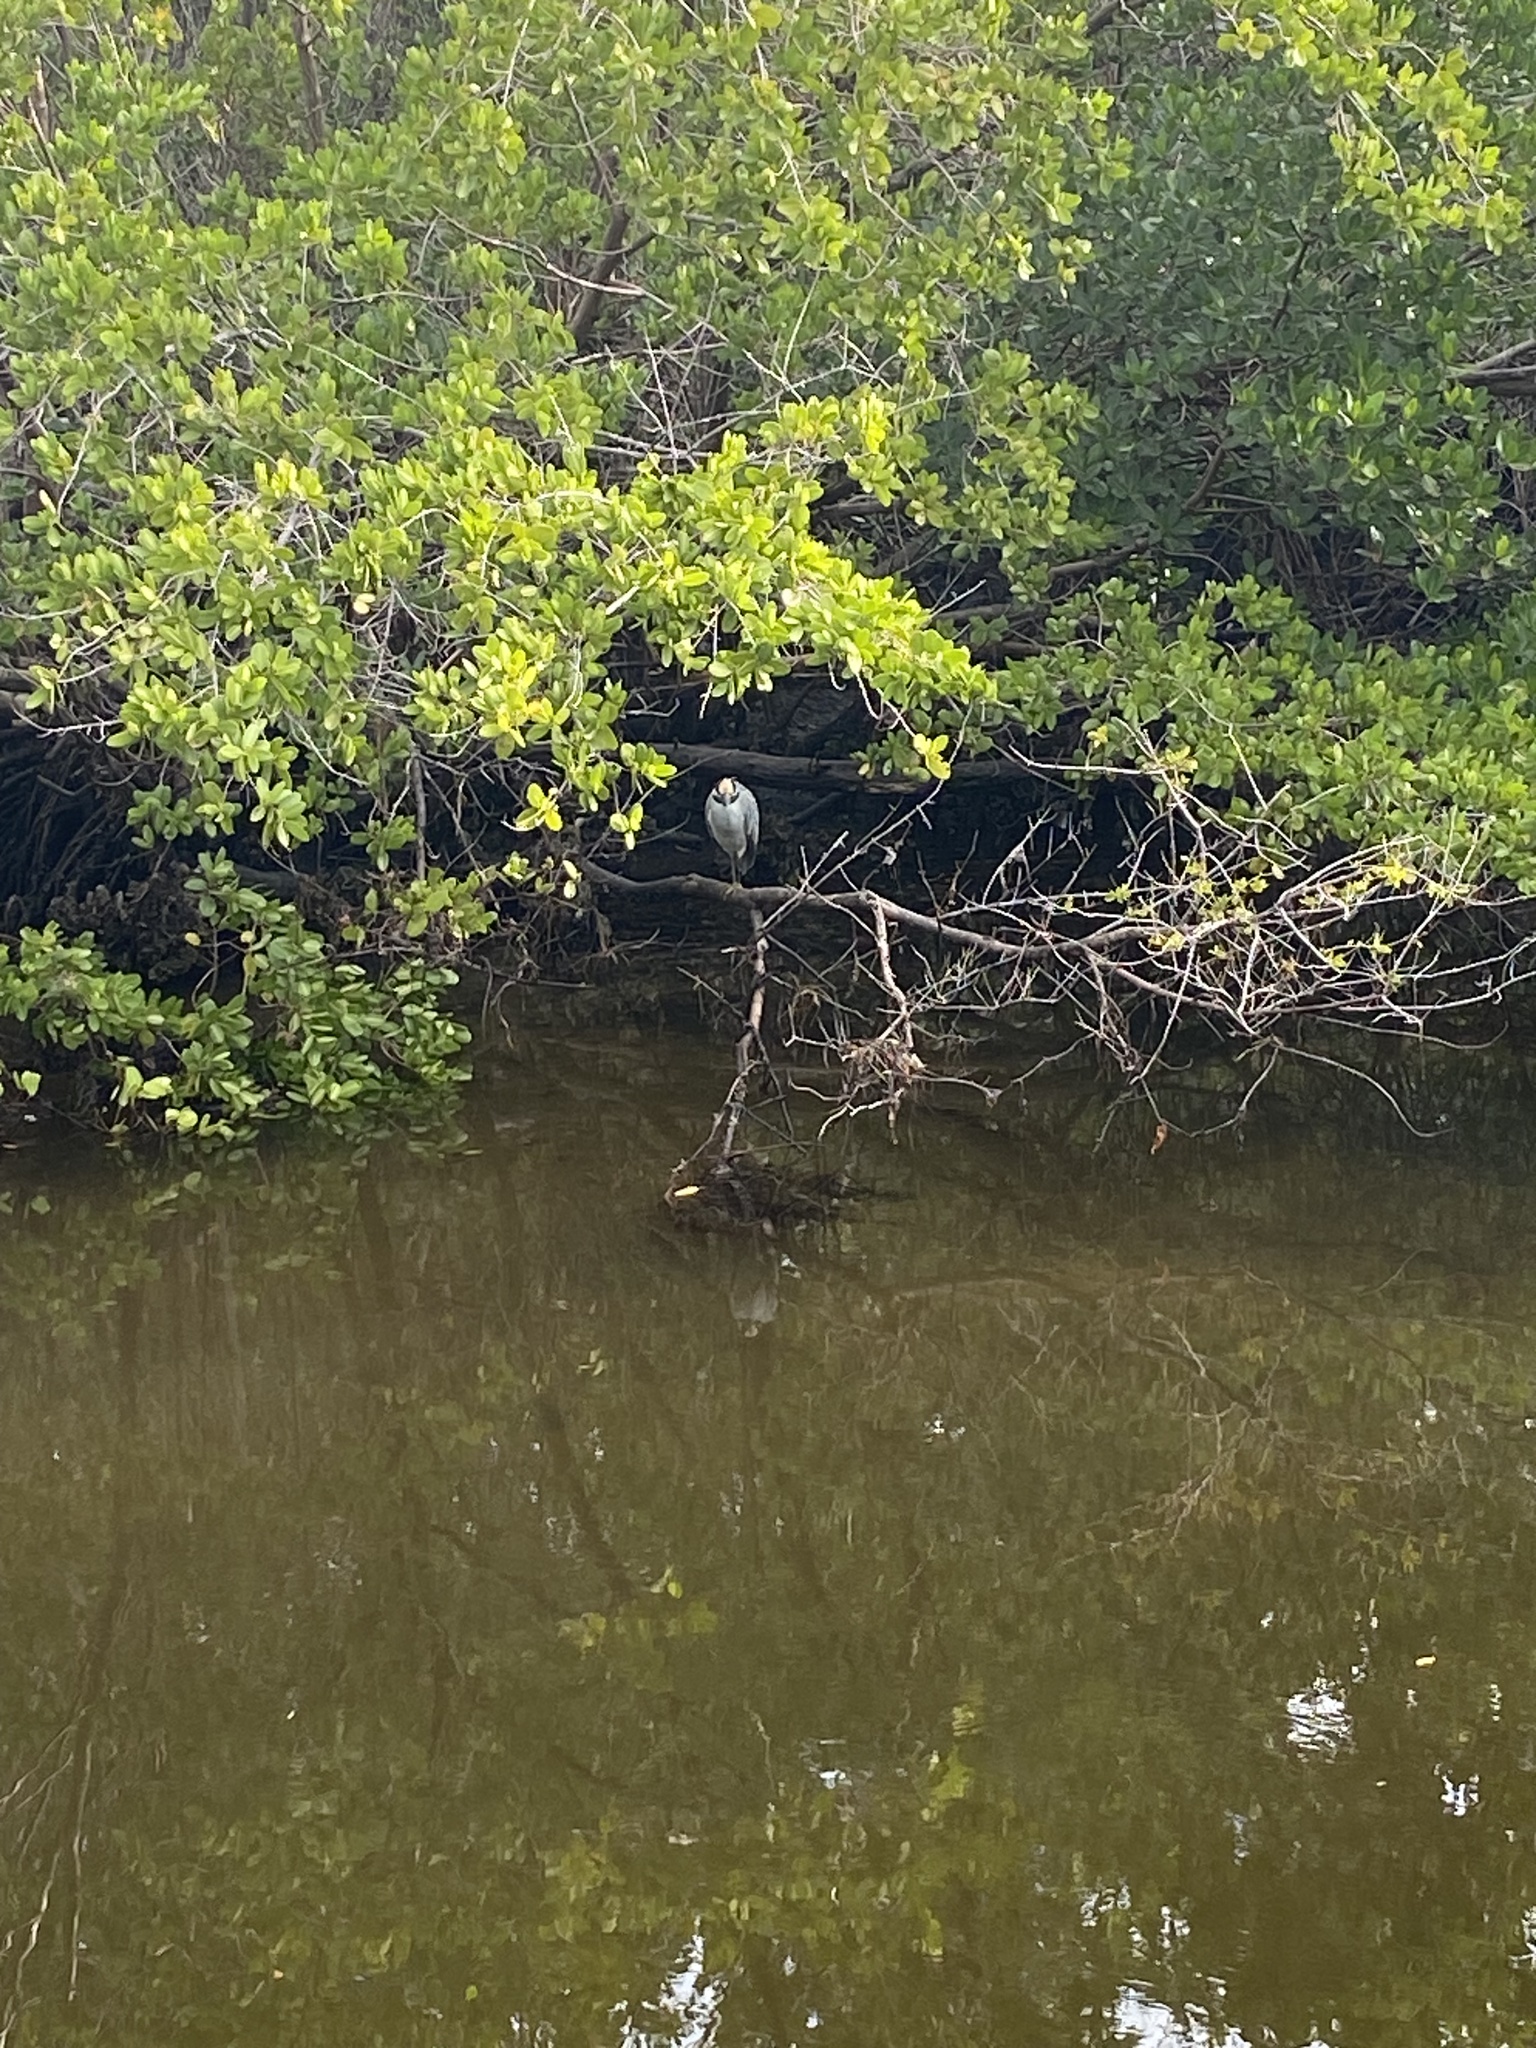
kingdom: Animalia
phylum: Chordata
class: Aves
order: Pelecaniformes
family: Ardeidae
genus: Nyctanassa
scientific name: Nyctanassa violacea
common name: Yellow-crowned night heron
